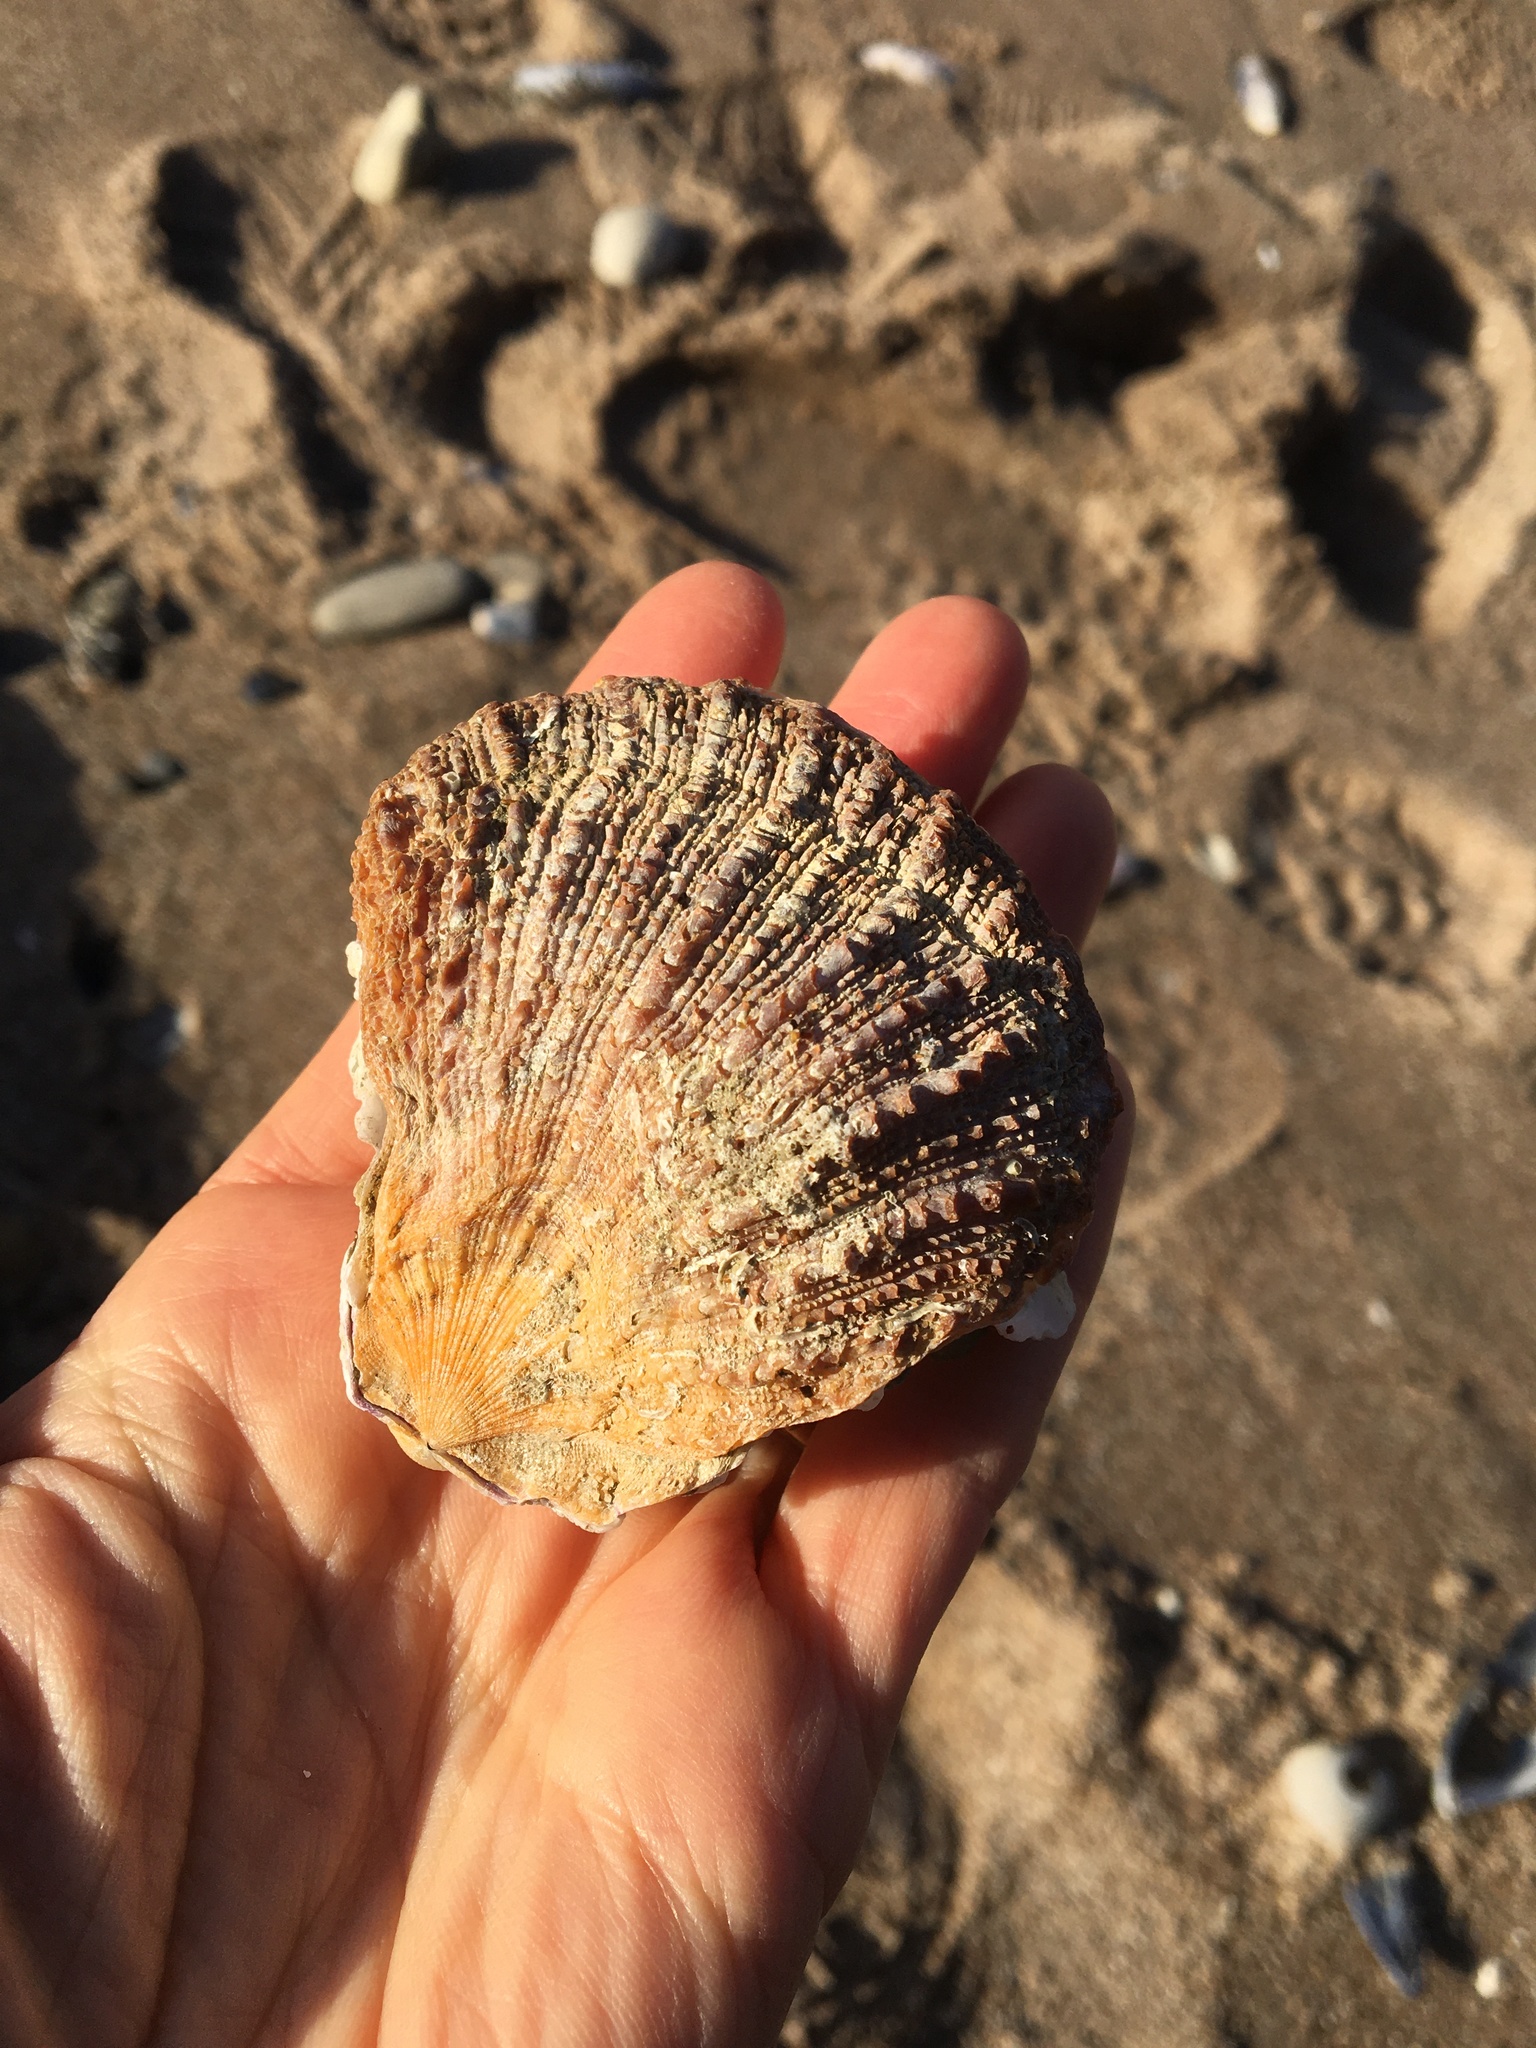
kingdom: Animalia
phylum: Mollusca
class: Bivalvia
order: Pectinida
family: Pectinidae
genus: Crassadoma
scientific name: Crassadoma gigantea
